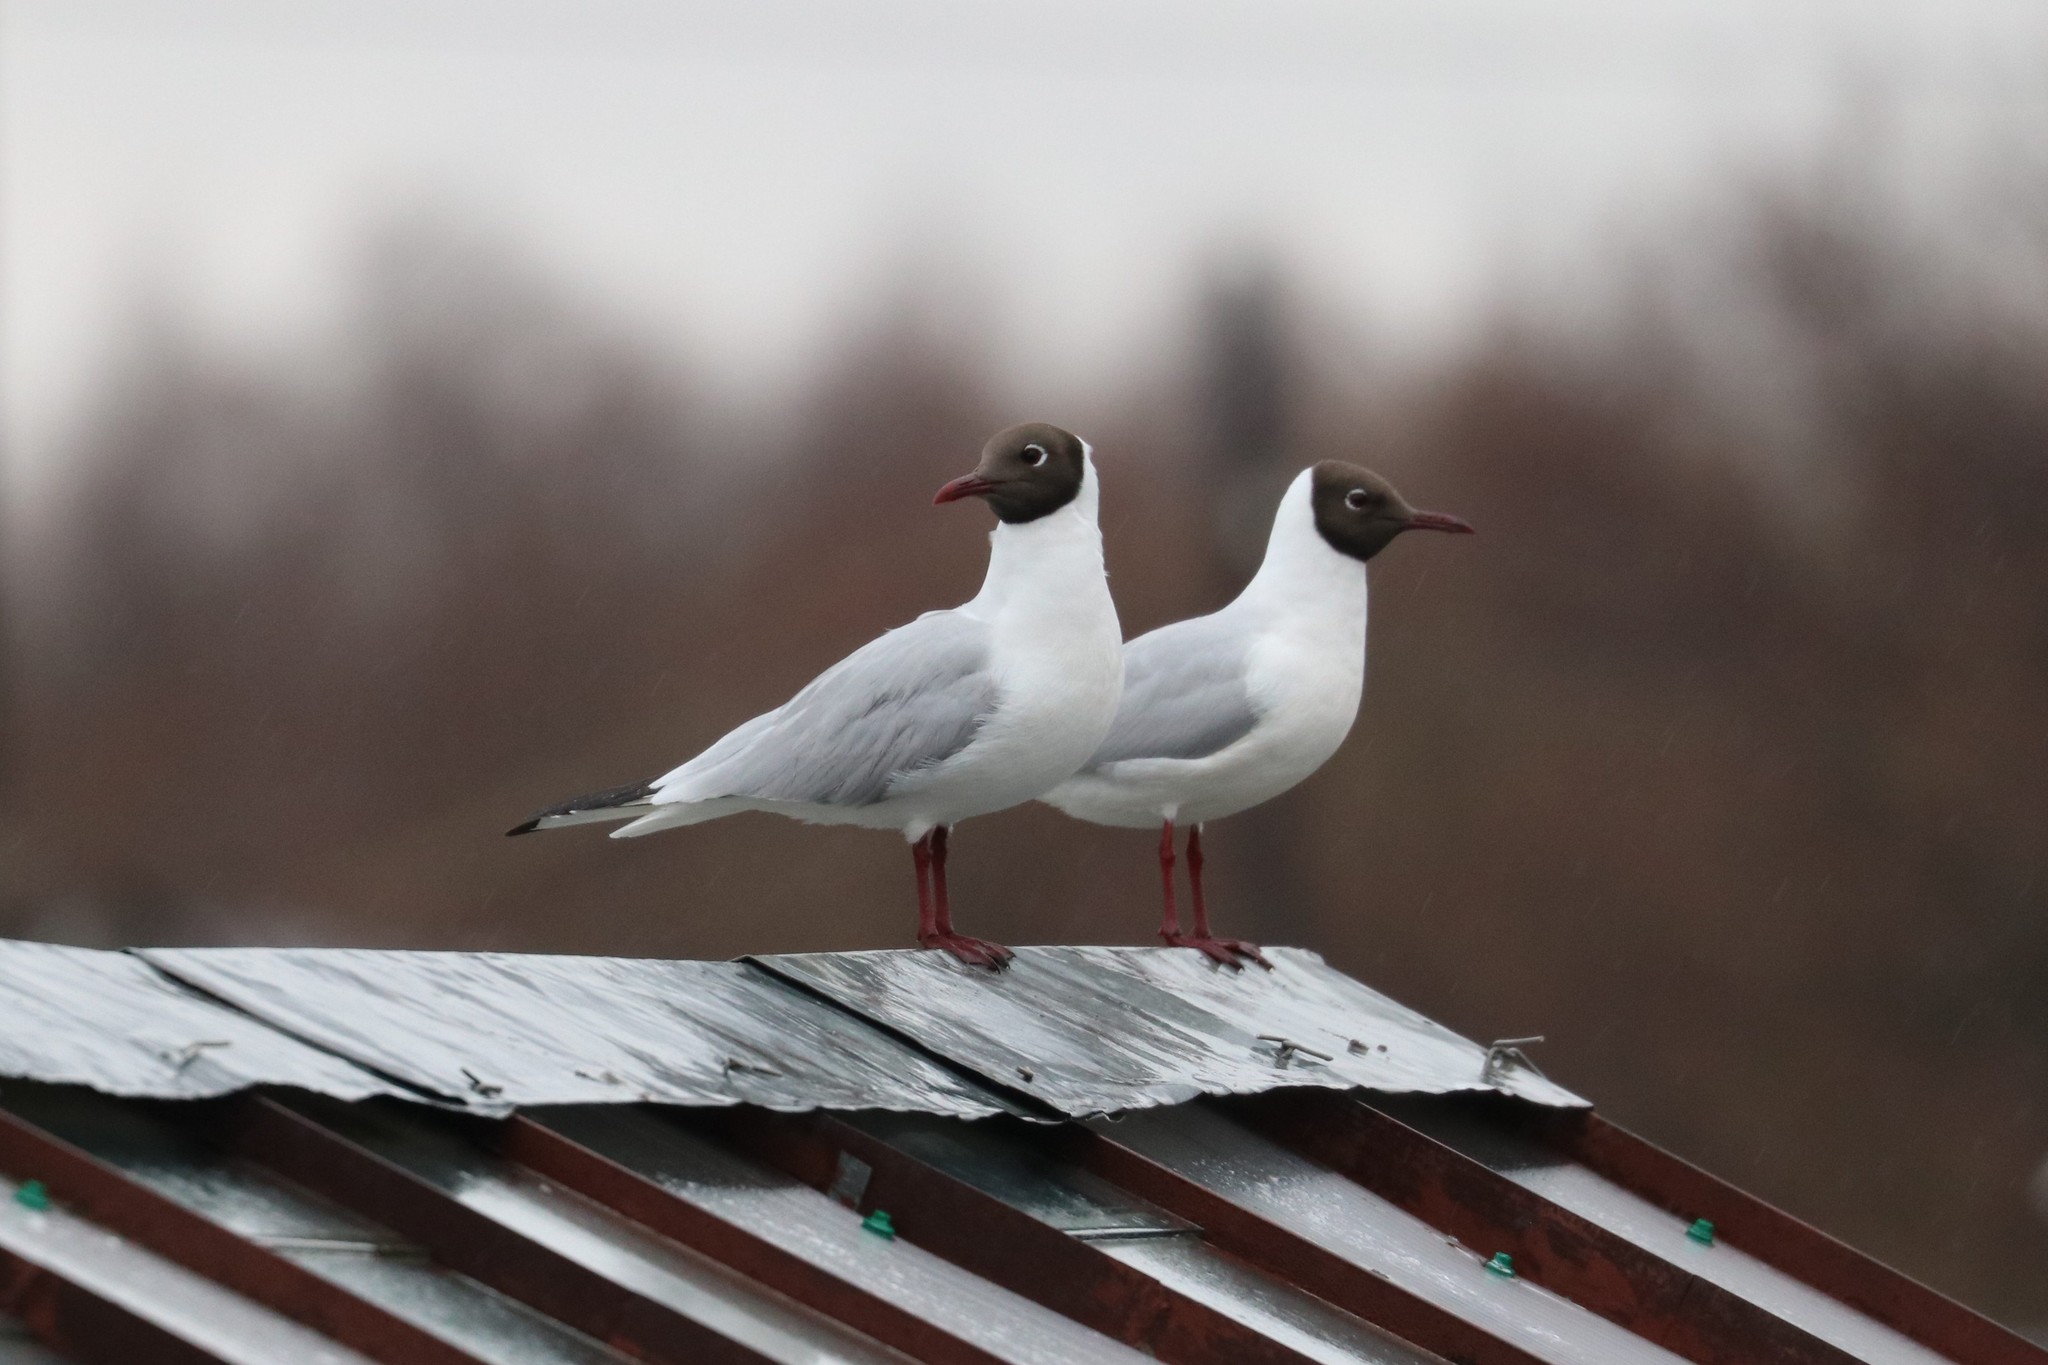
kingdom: Animalia
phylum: Chordata
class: Aves
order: Charadriiformes
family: Laridae
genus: Chroicocephalus
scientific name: Chroicocephalus ridibundus
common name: Black-headed gull
